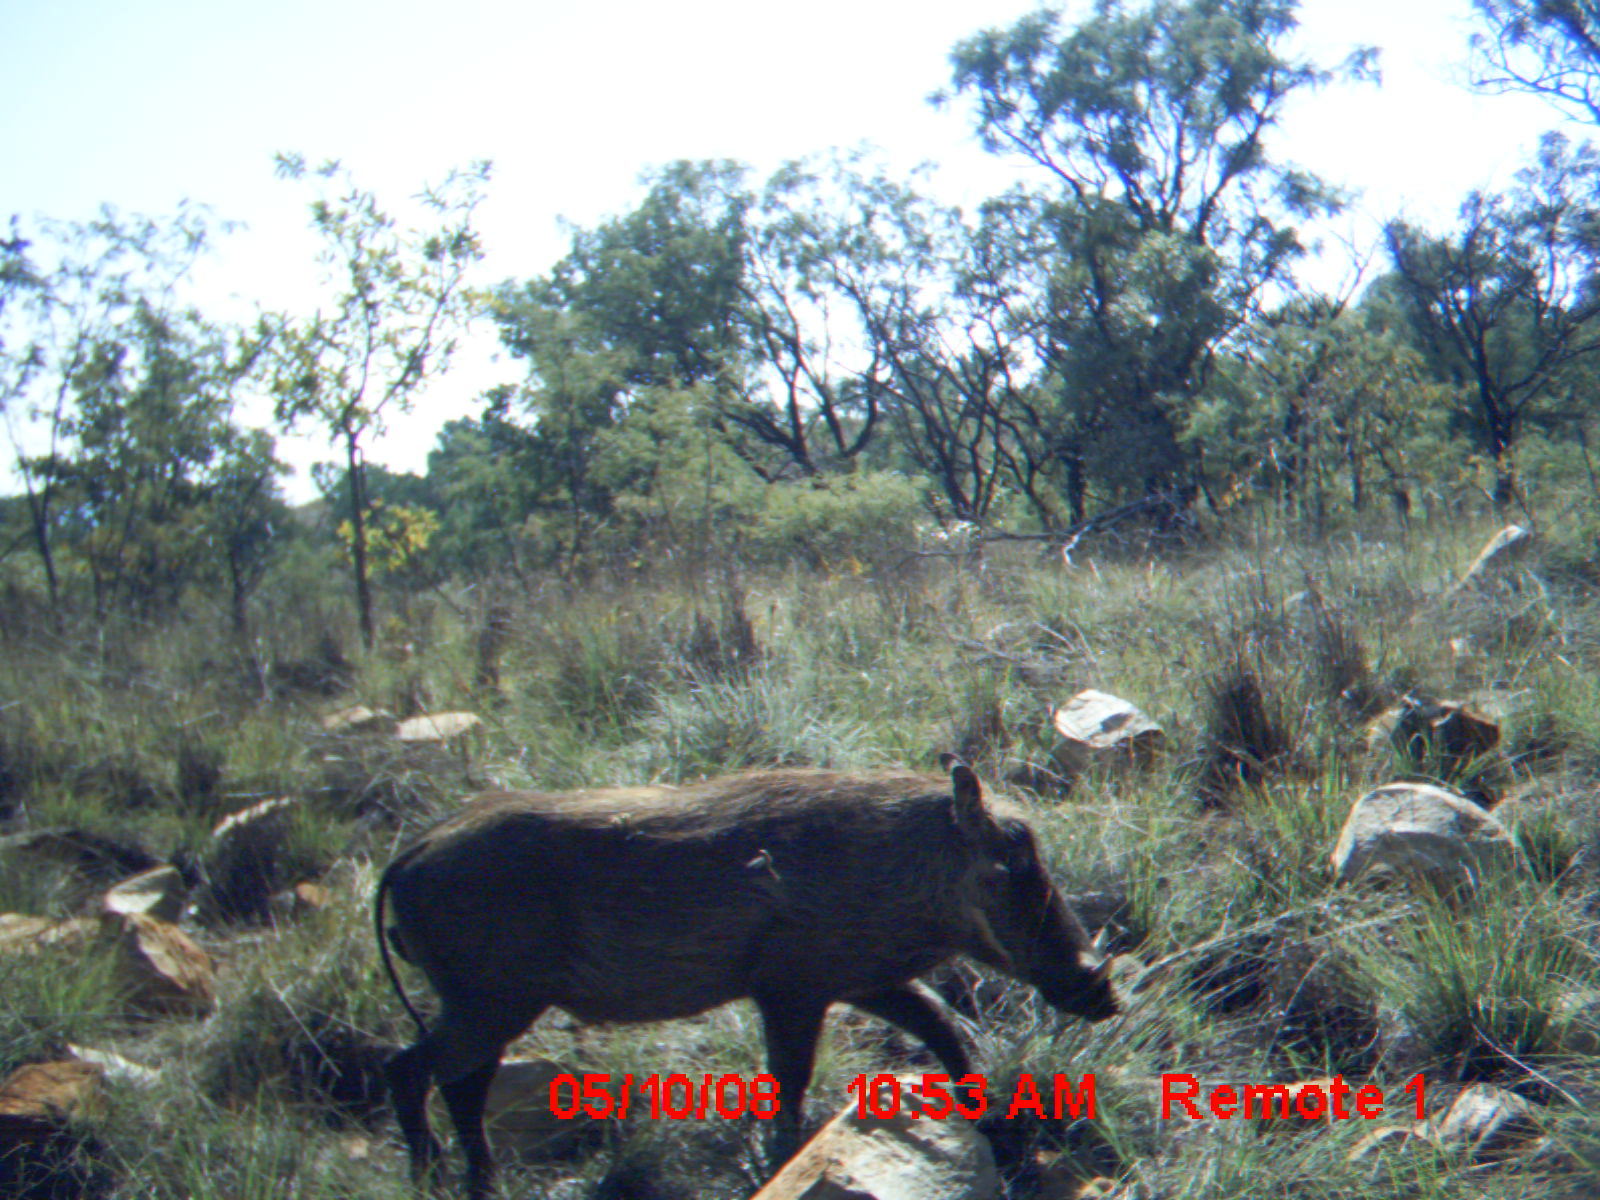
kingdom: Animalia
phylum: Chordata
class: Mammalia
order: Artiodactyla
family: Suidae
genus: Phacochoerus
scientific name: Phacochoerus africanus
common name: Common warthog
